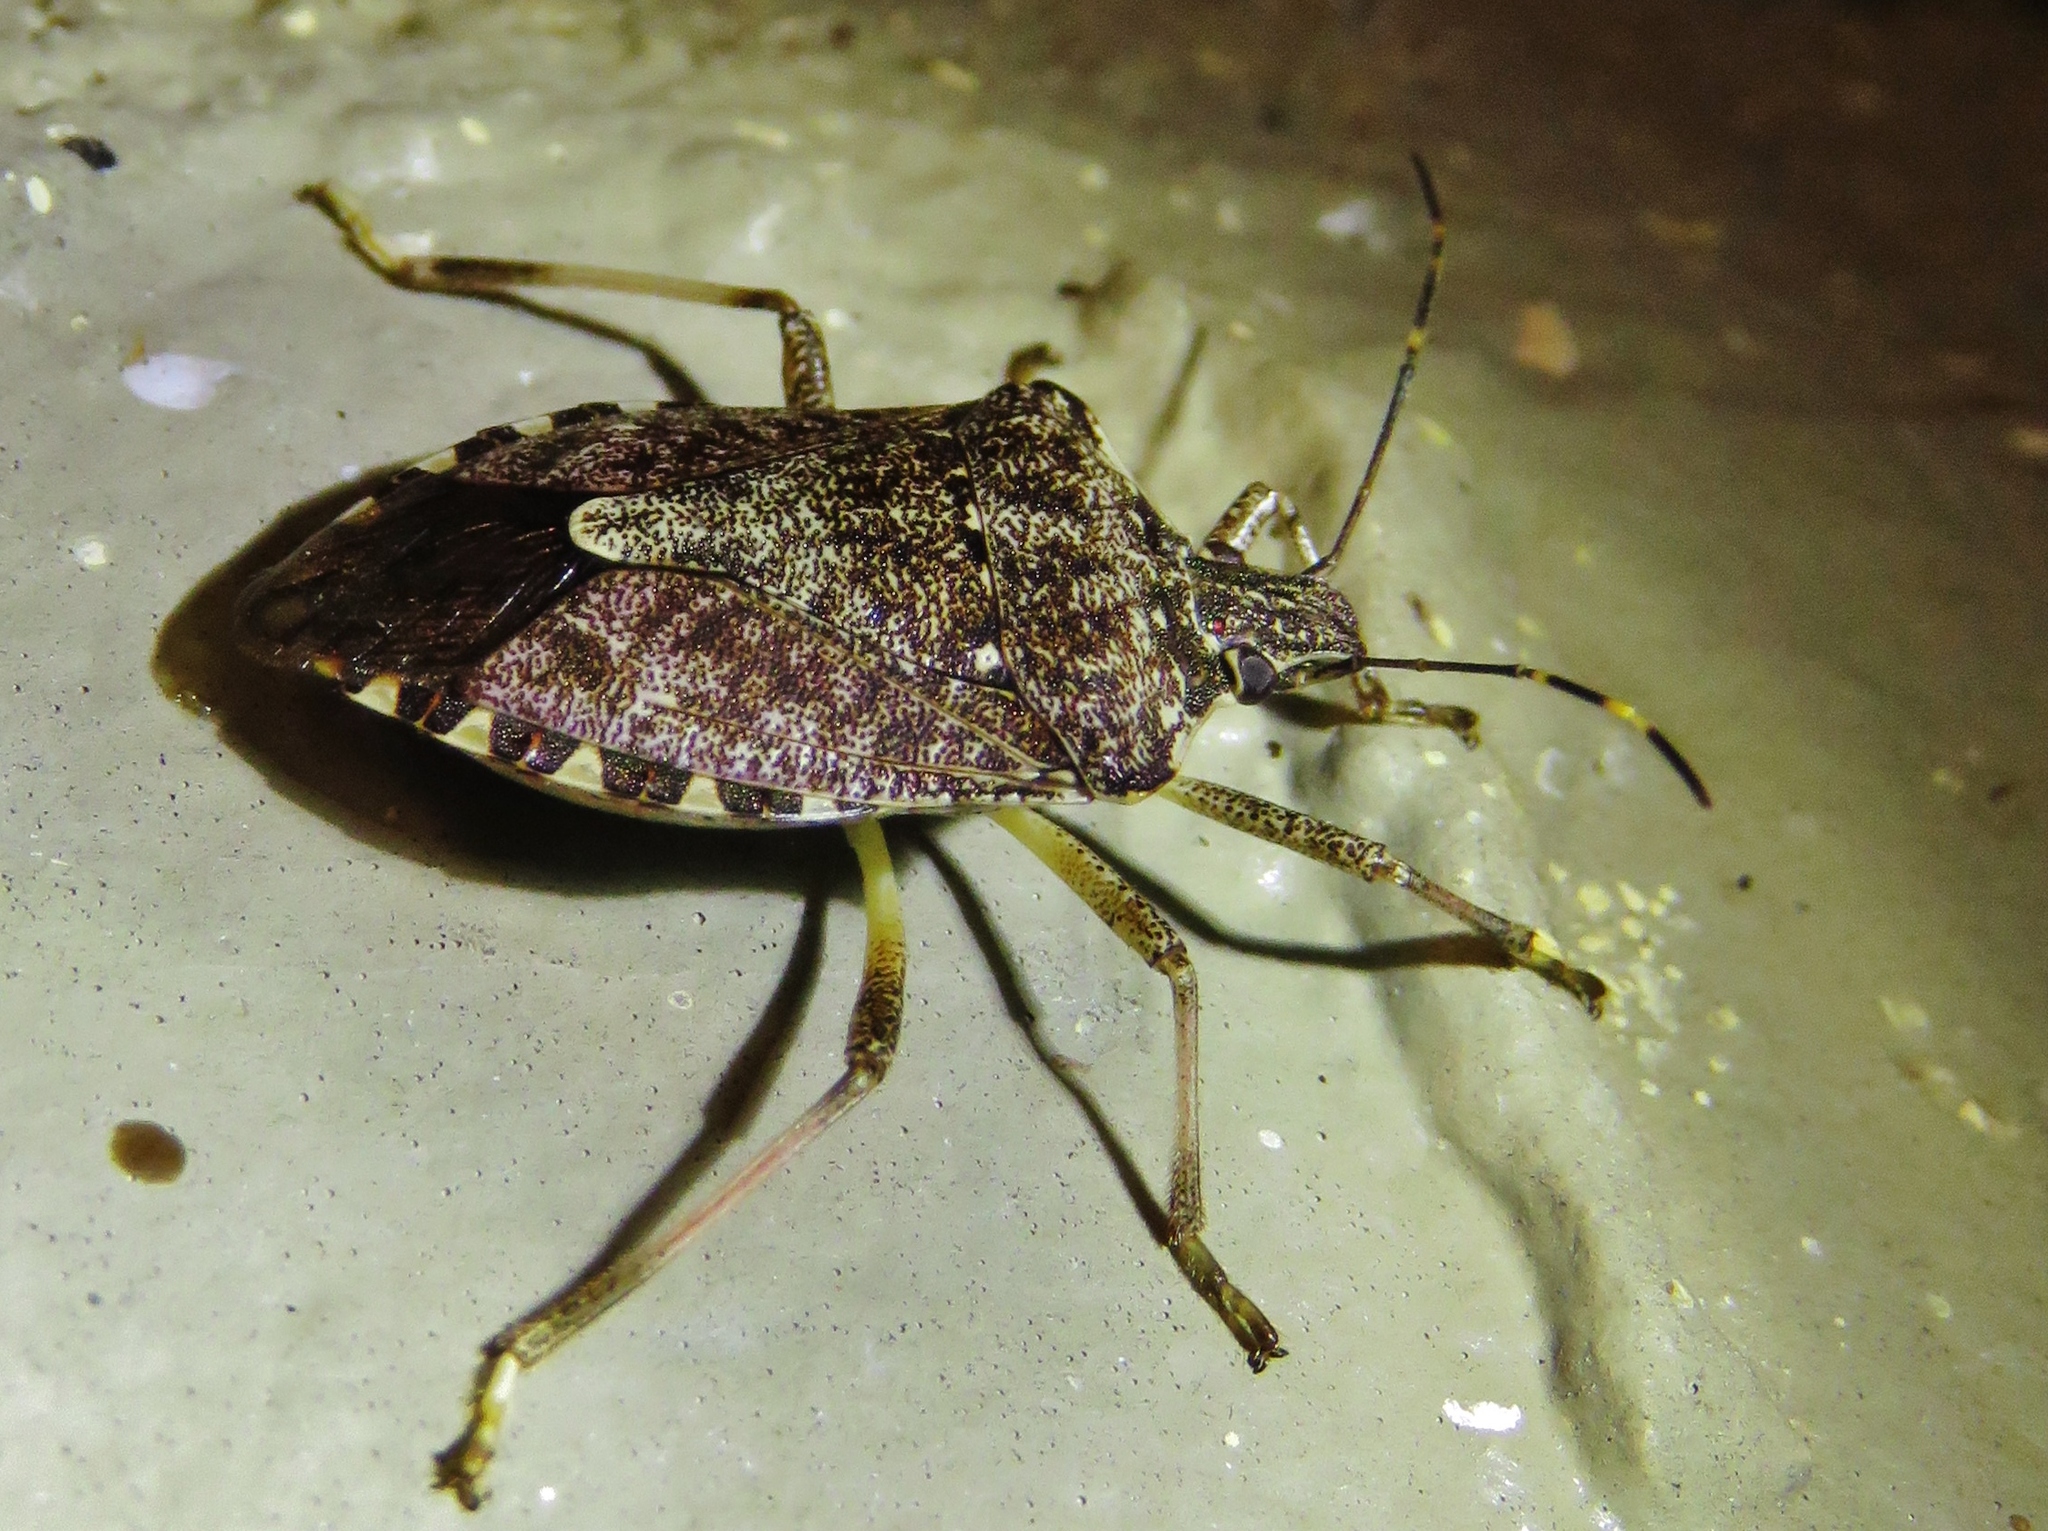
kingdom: Animalia
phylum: Arthropoda
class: Insecta
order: Hemiptera
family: Pentatomidae
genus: Halyomorpha
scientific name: Halyomorpha halys
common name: Brown marmorated stink bug
